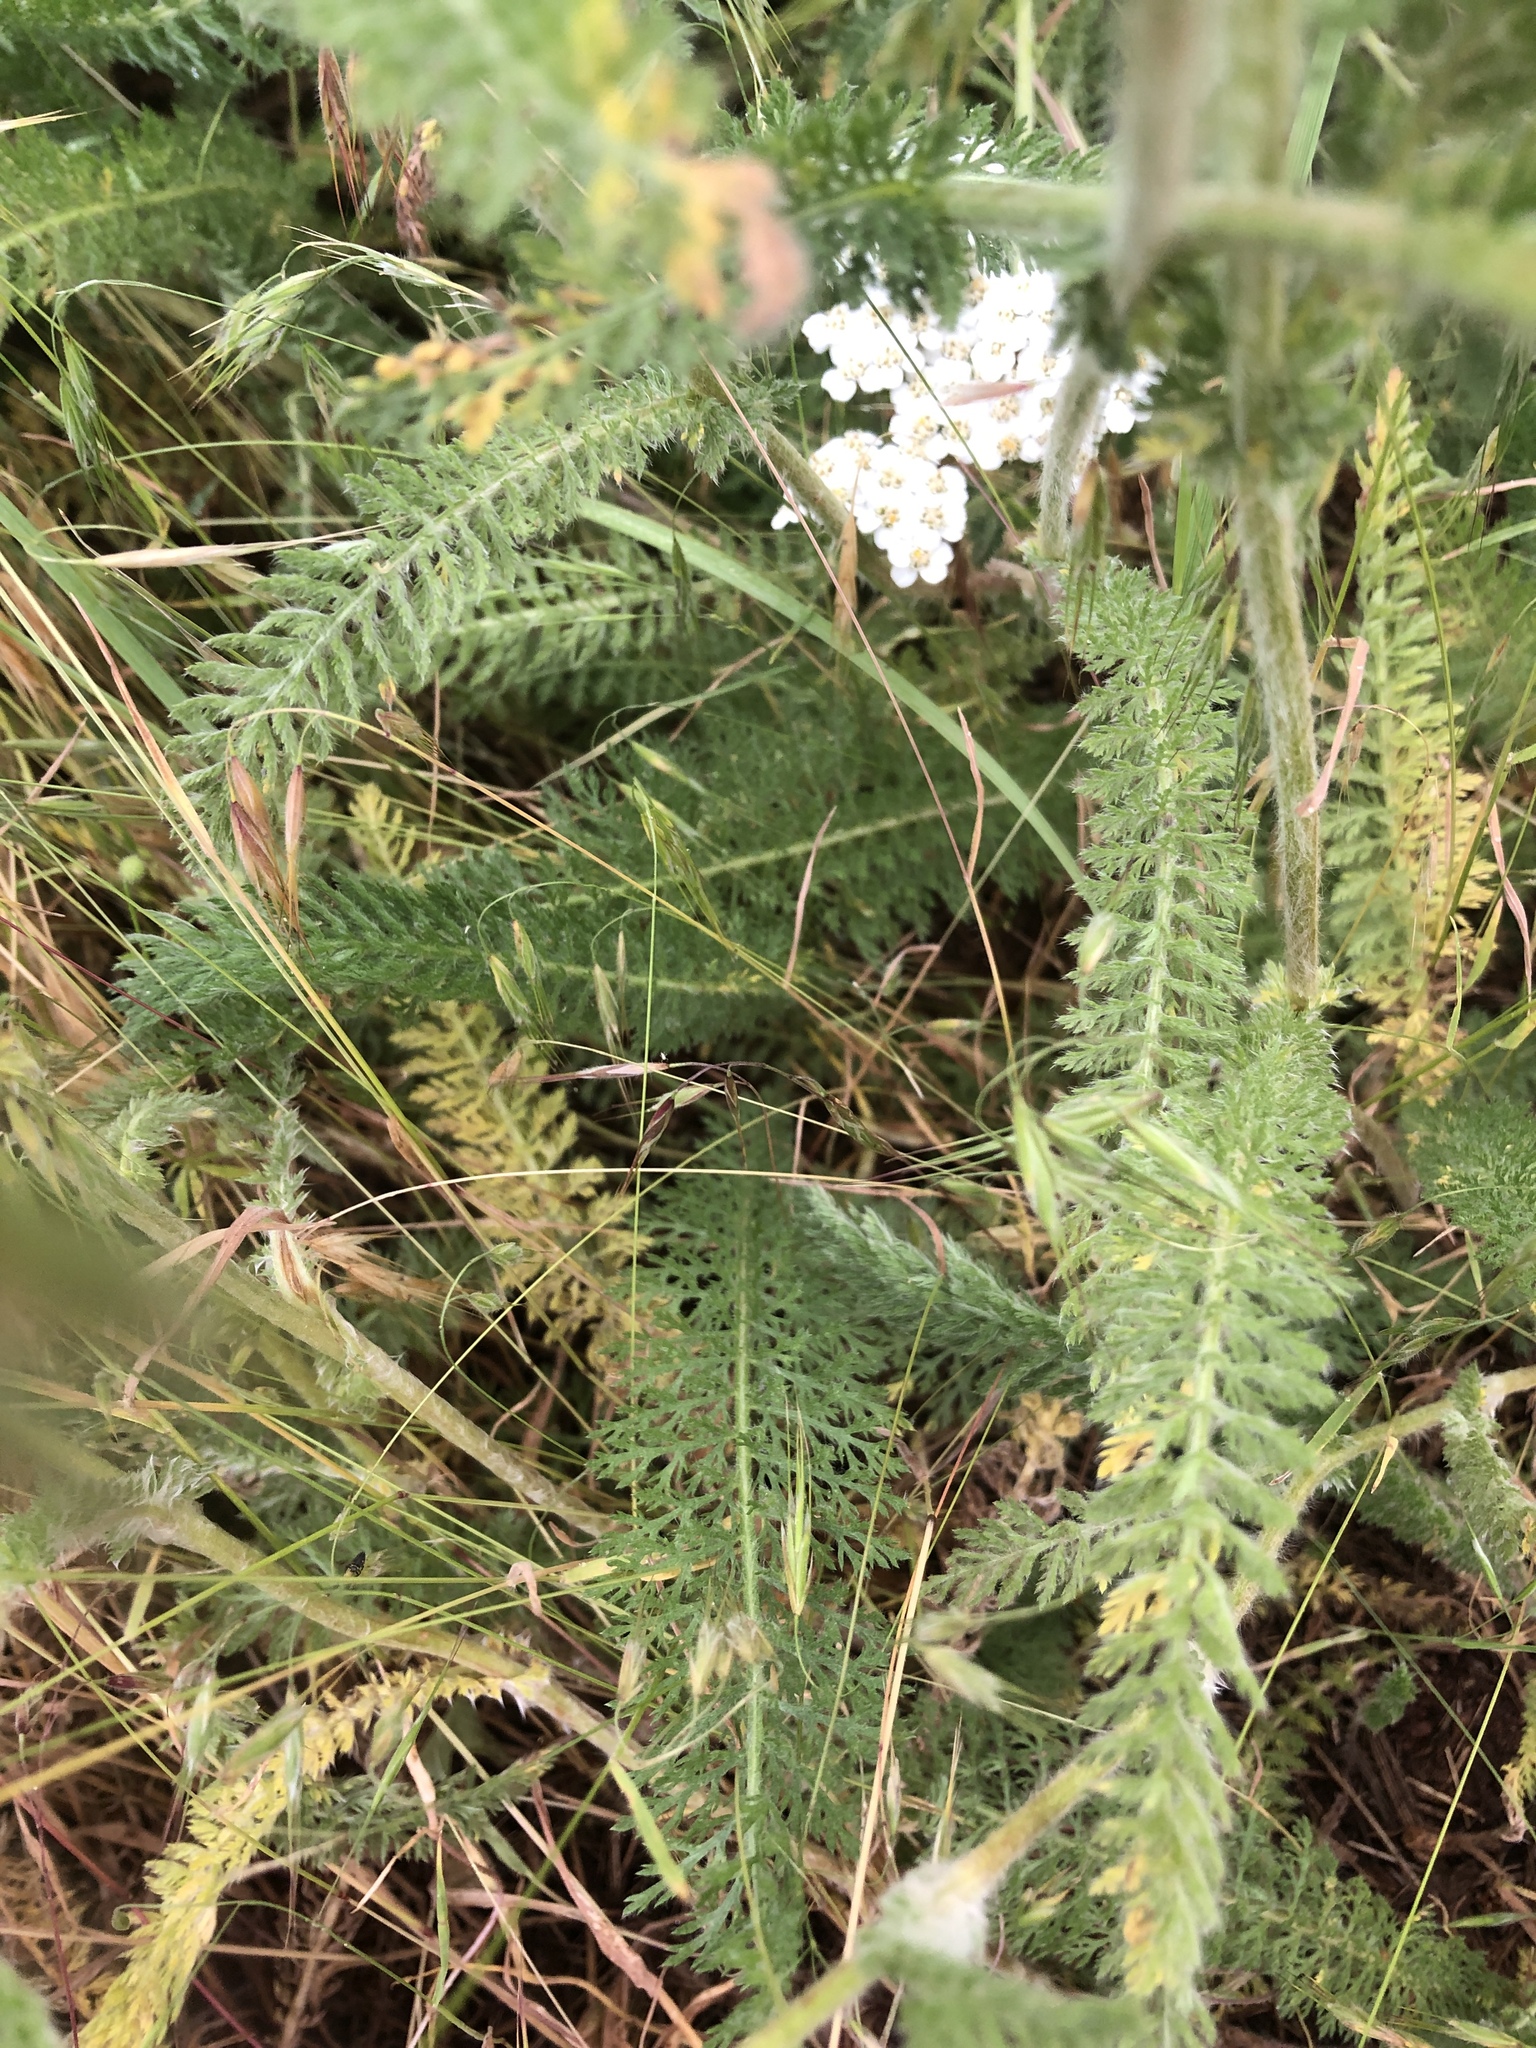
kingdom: Plantae
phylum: Tracheophyta
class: Magnoliopsida
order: Asterales
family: Asteraceae
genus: Achillea
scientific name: Achillea millefolium
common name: Yarrow
